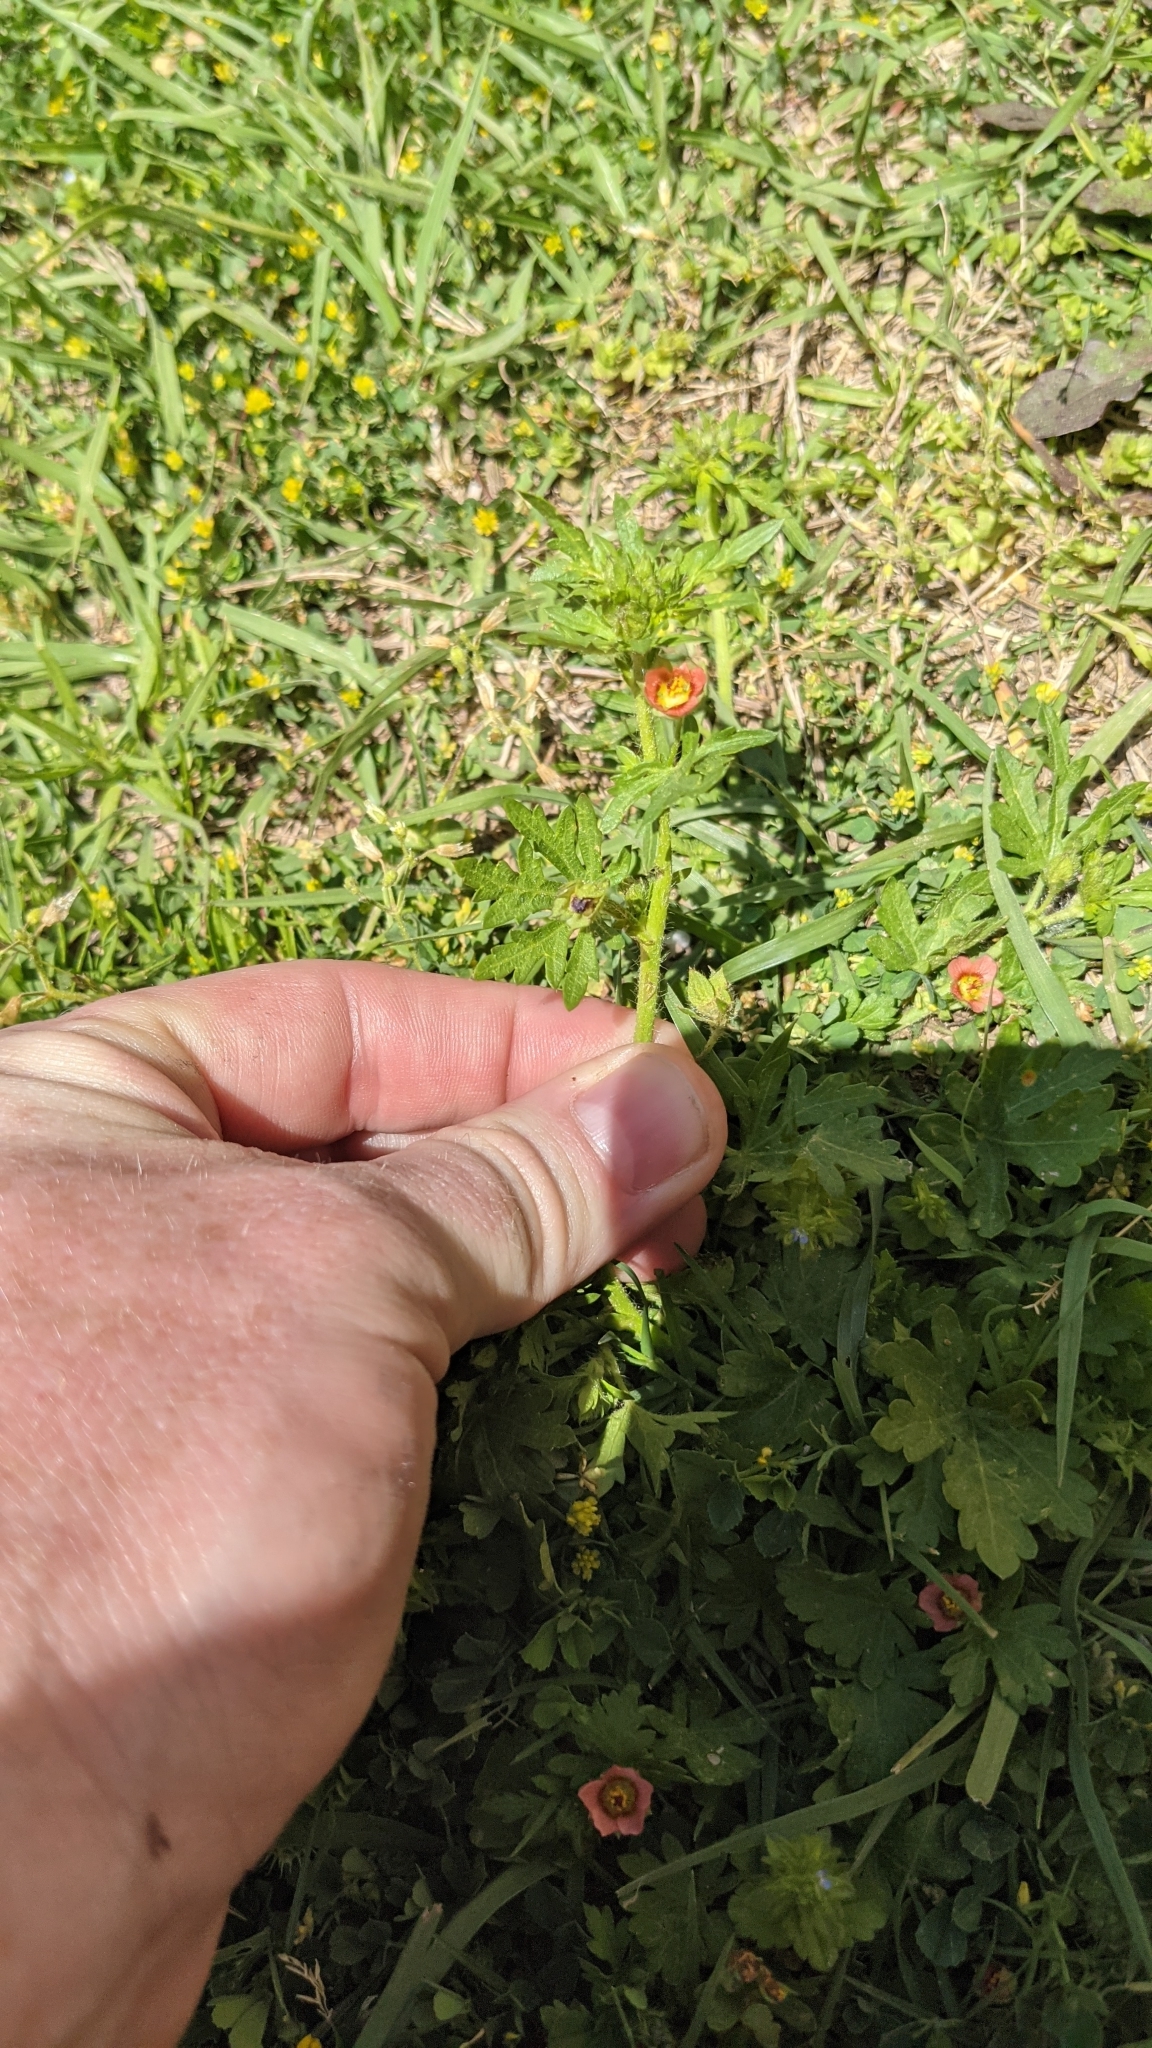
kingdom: Plantae
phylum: Tracheophyta
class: Magnoliopsida
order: Malvales
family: Malvaceae
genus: Modiola
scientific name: Modiola caroliniana
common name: Carolina bristlemallow
